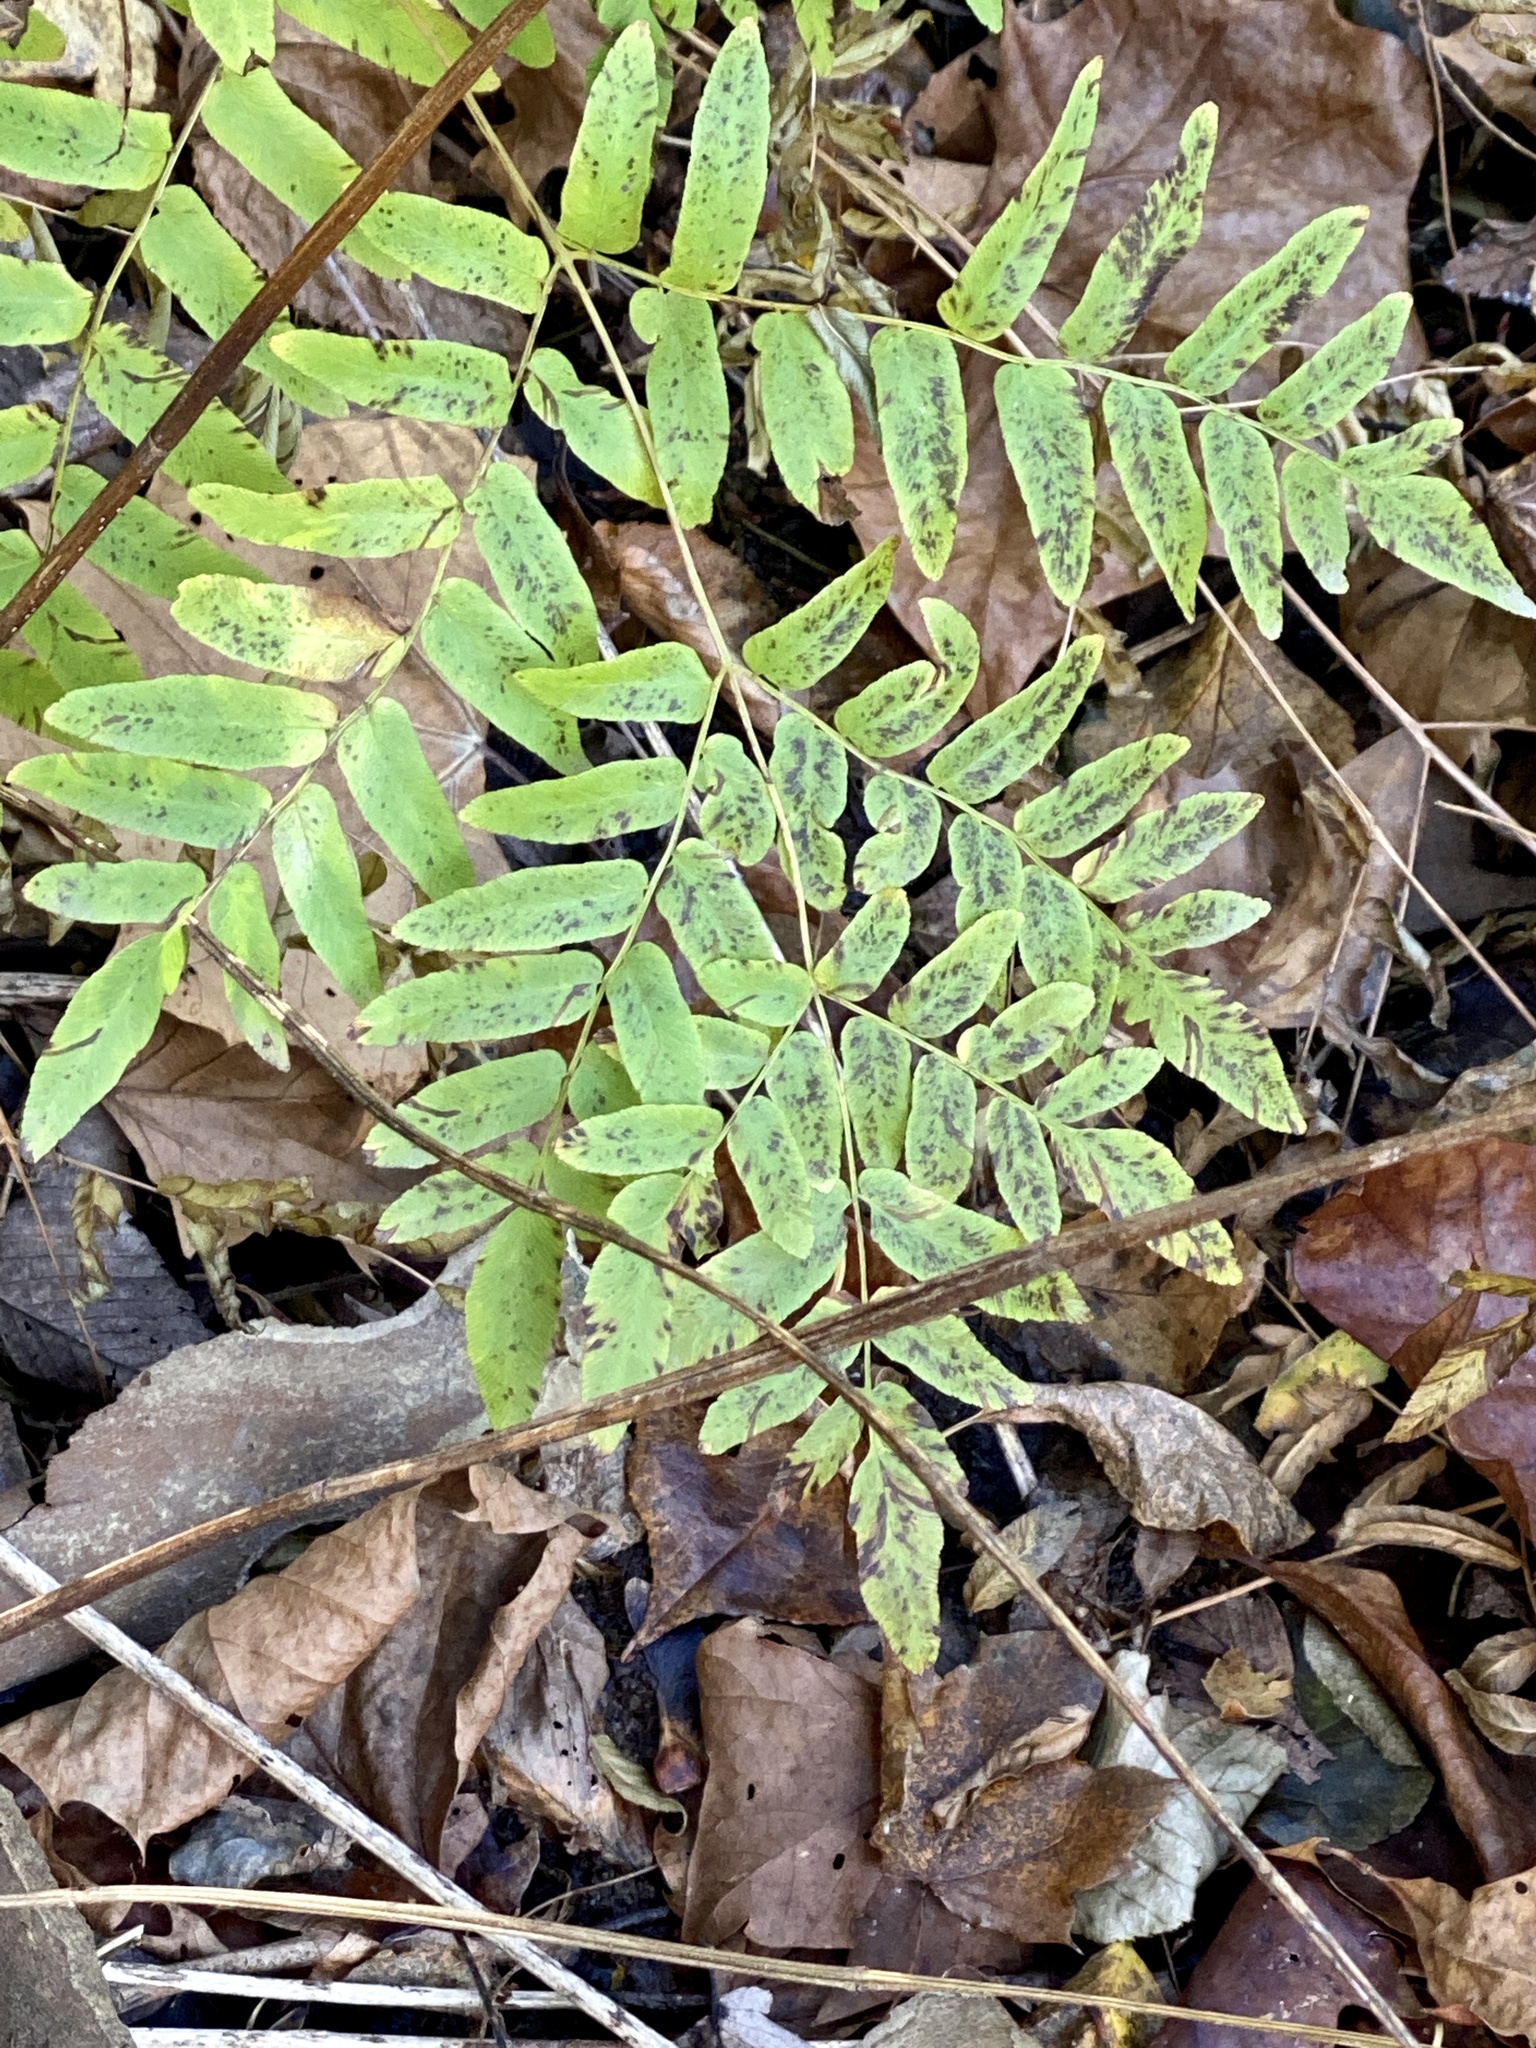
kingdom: Plantae
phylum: Tracheophyta
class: Polypodiopsida
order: Osmundales
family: Osmundaceae
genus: Osmunda
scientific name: Osmunda spectabilis
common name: American royal fern
